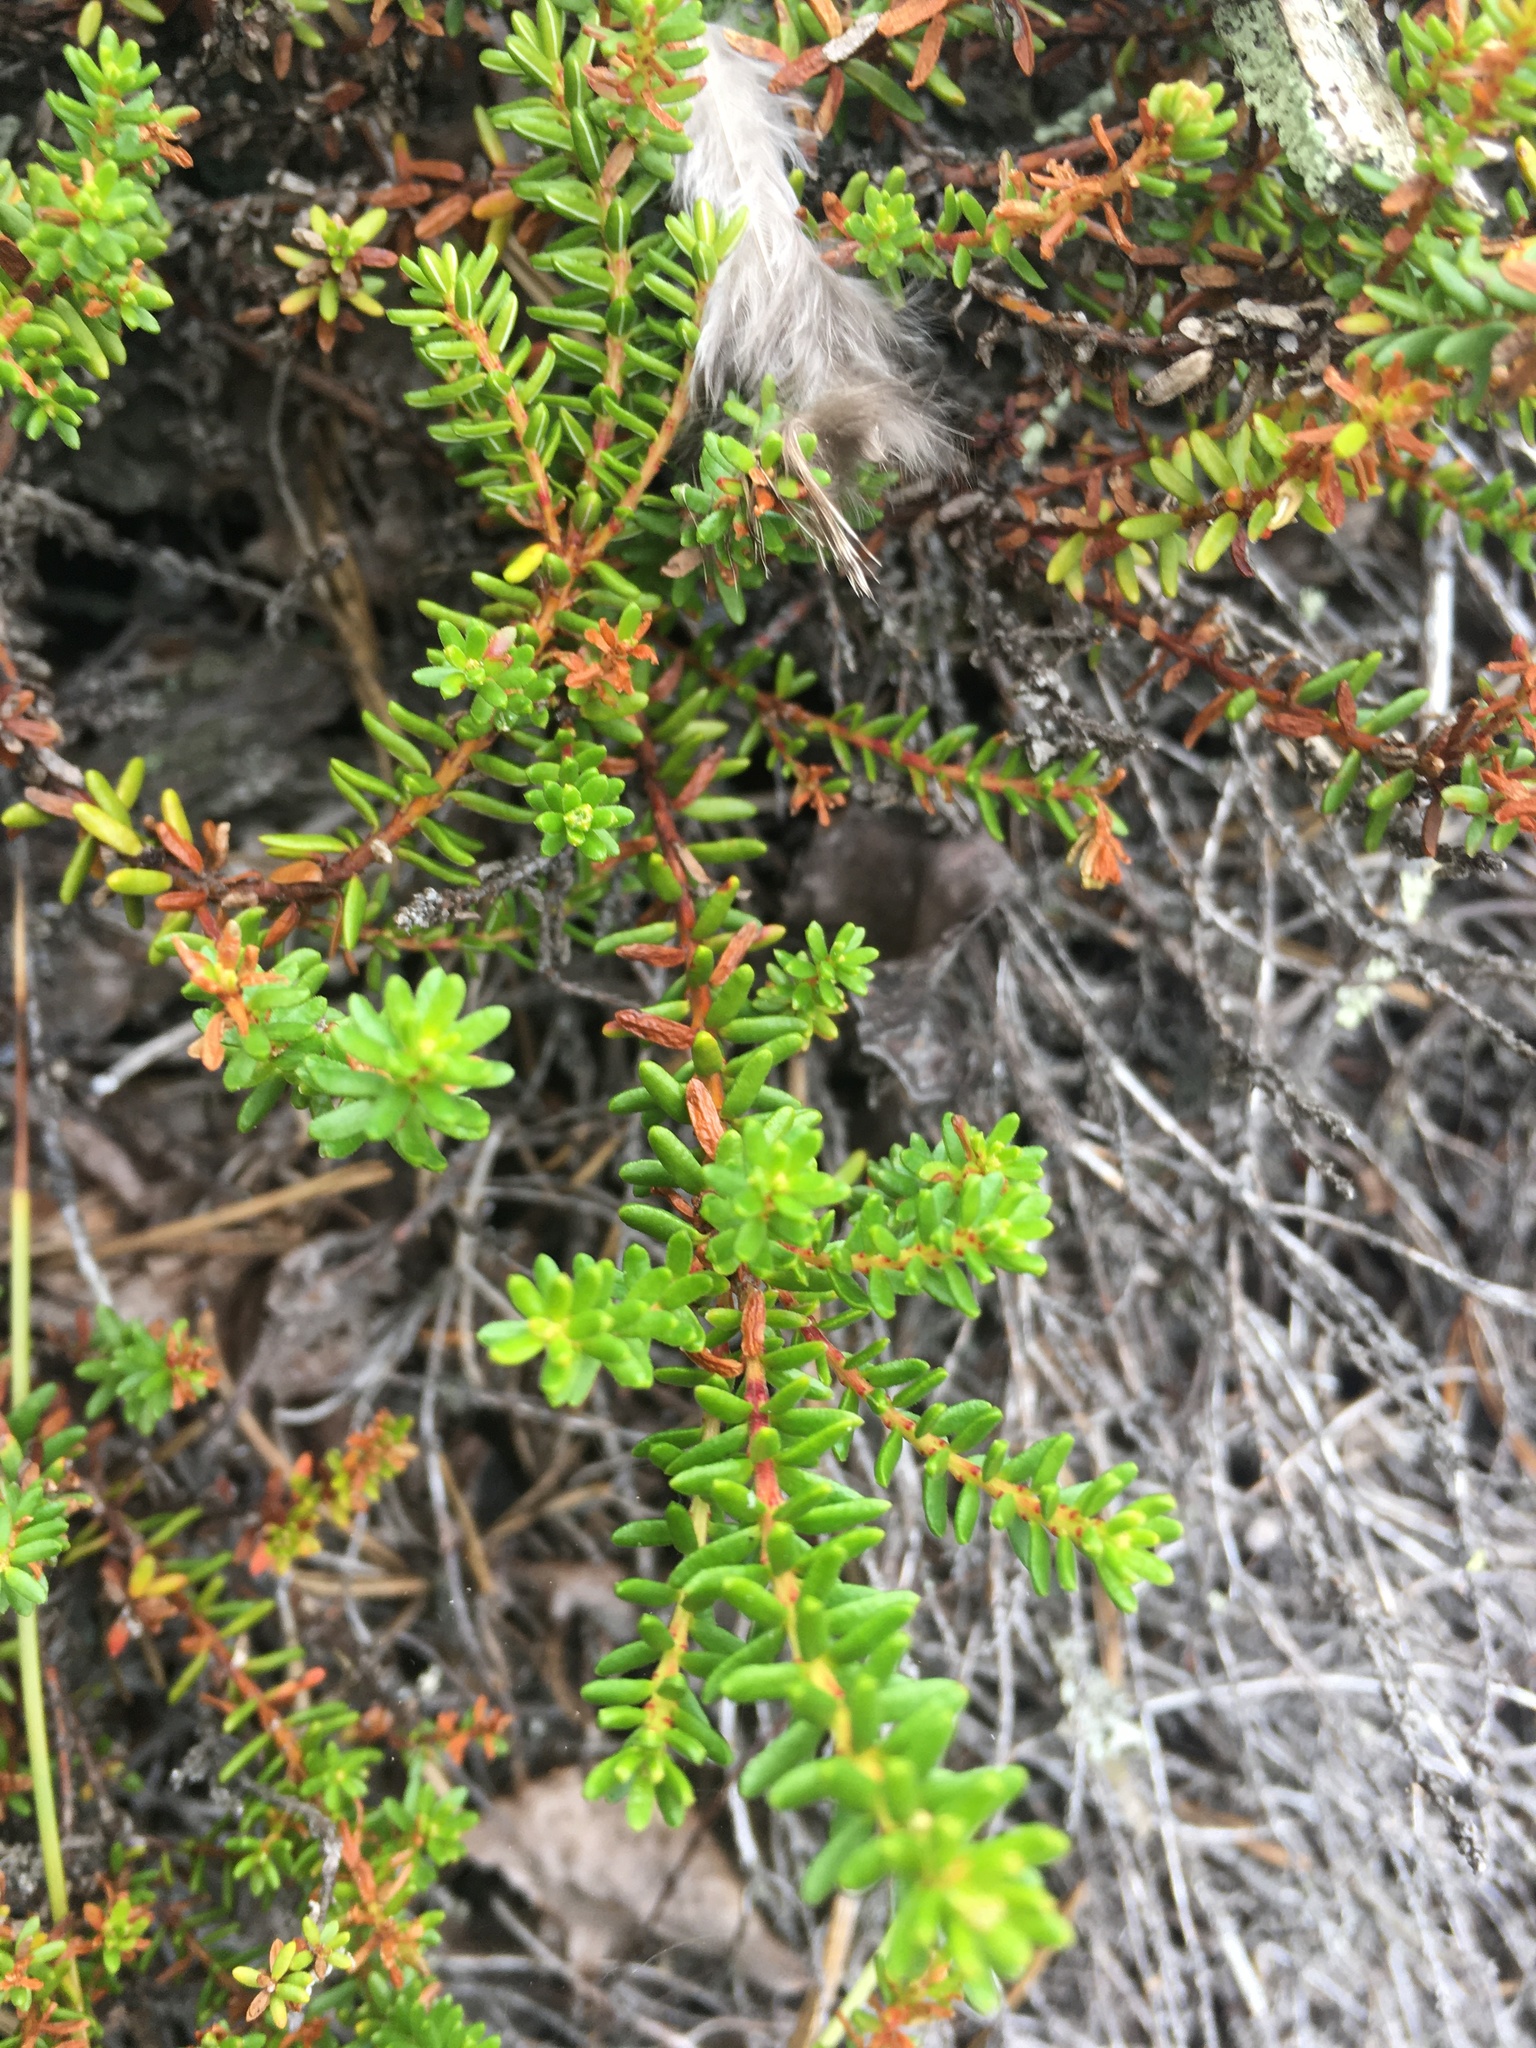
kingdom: Plantae
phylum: Tracheophyta
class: Magnoliopsida
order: Ericales
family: Ericaceae
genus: Empetrum
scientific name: Empetrum nigrum
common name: Black crowberry
